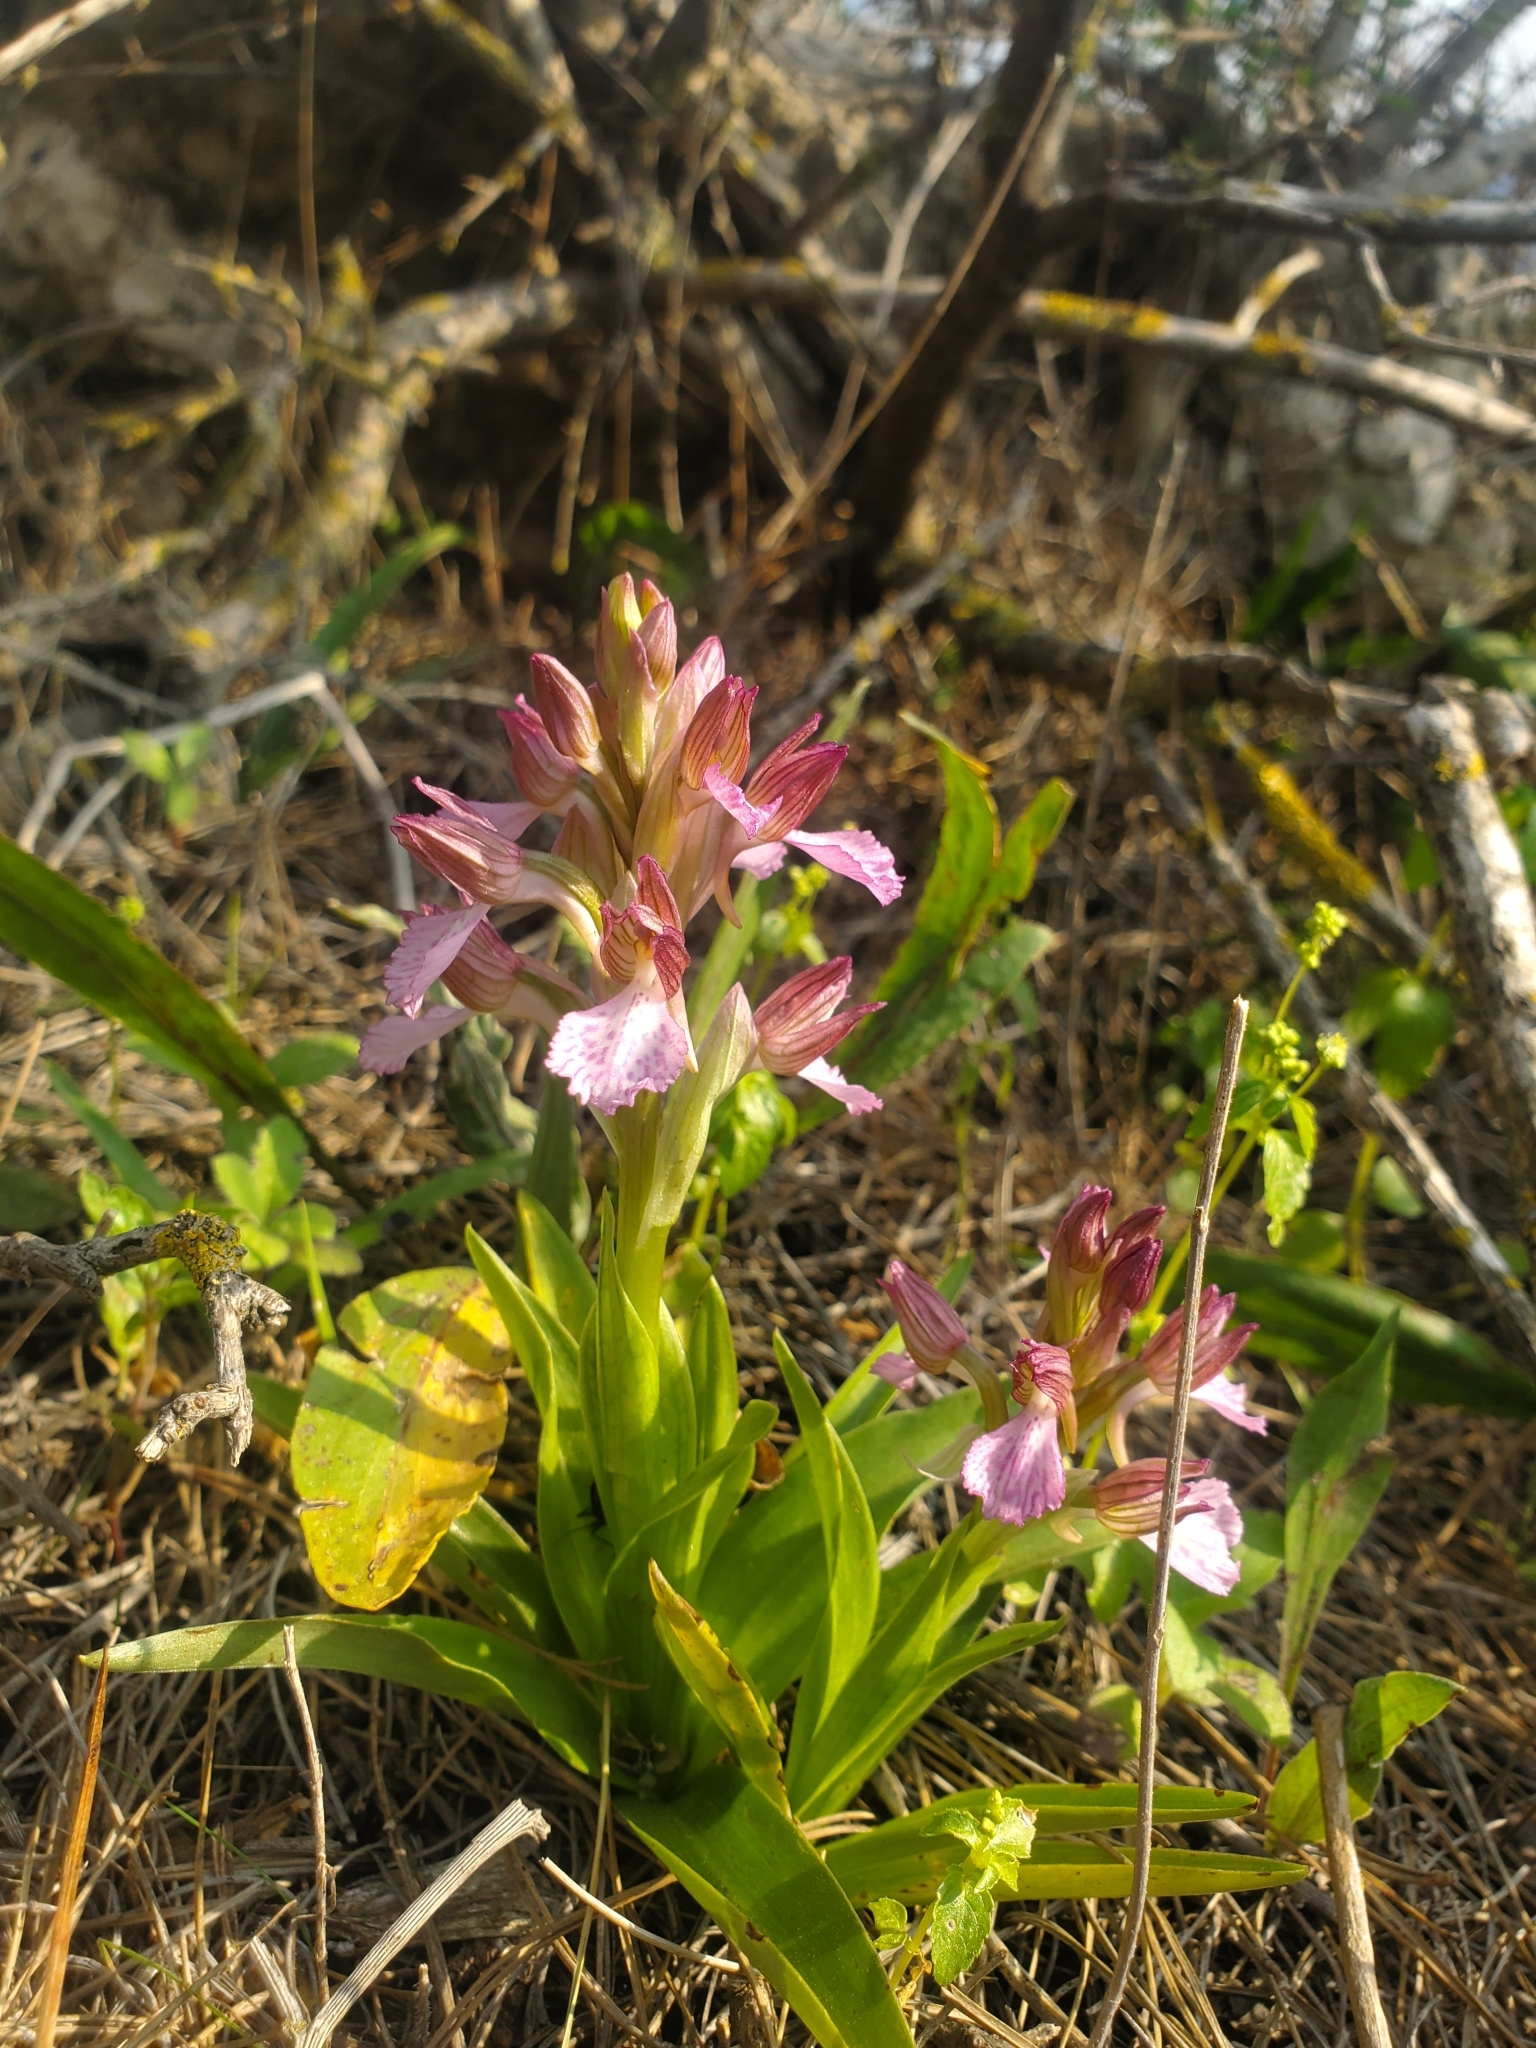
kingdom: Plantae
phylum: Tracheophyta
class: Liliopsida
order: Asparagales
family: Orchidaceae
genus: Anacamptis
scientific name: Anacamptis papilionacea
